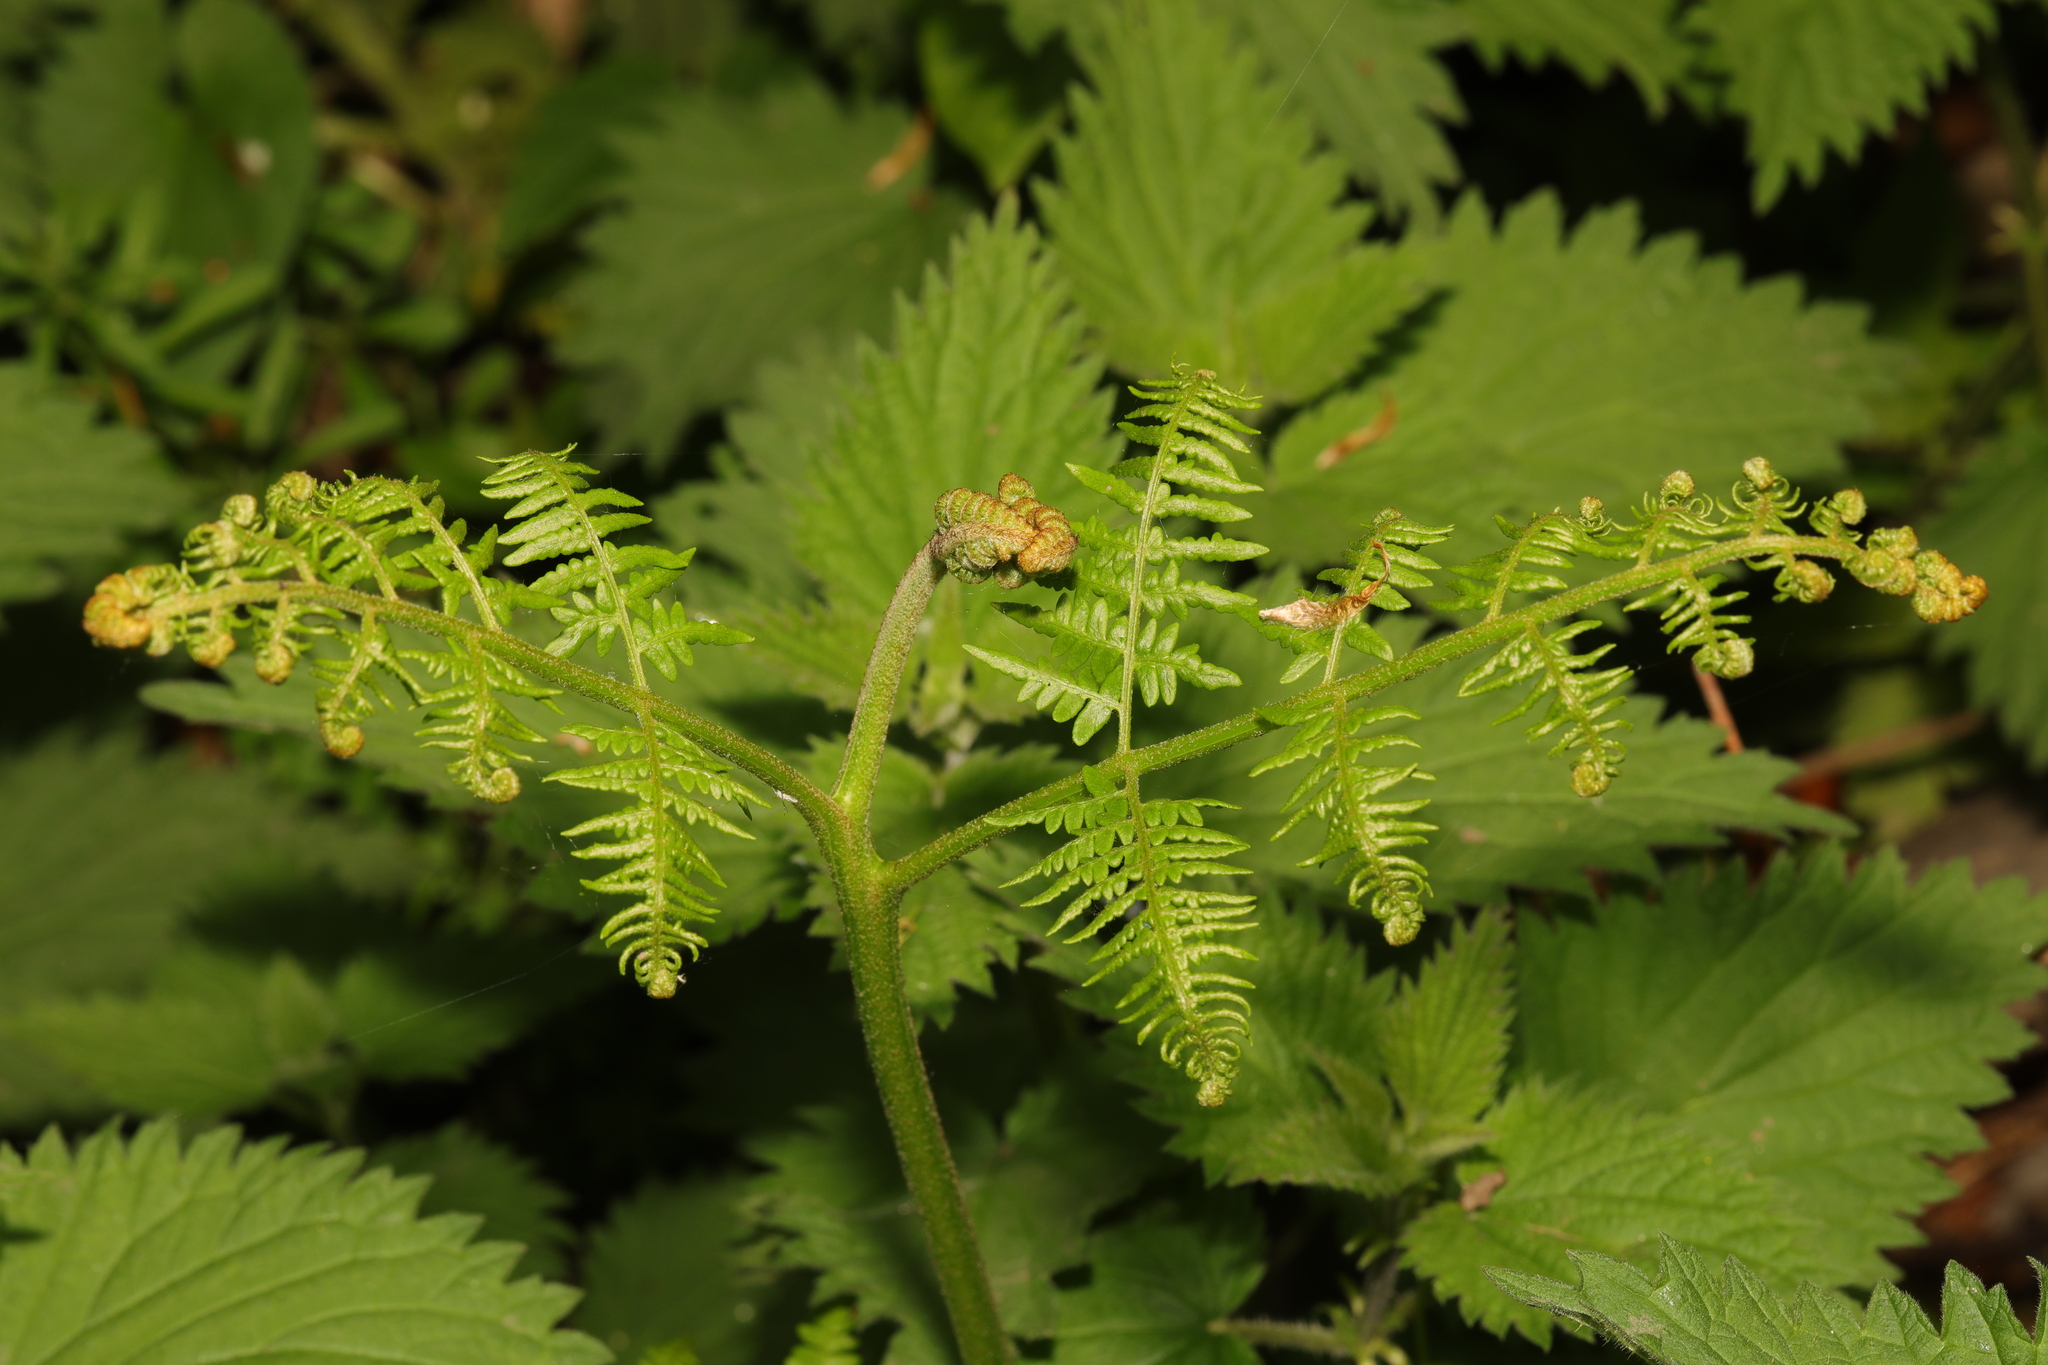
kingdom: Plantae
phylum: Tracheophyta
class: Polypodiopsida
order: Polypodiales
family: Dennstaedtiaceae
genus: Pteridium
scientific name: Pteridium aquilinum
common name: Bracken
